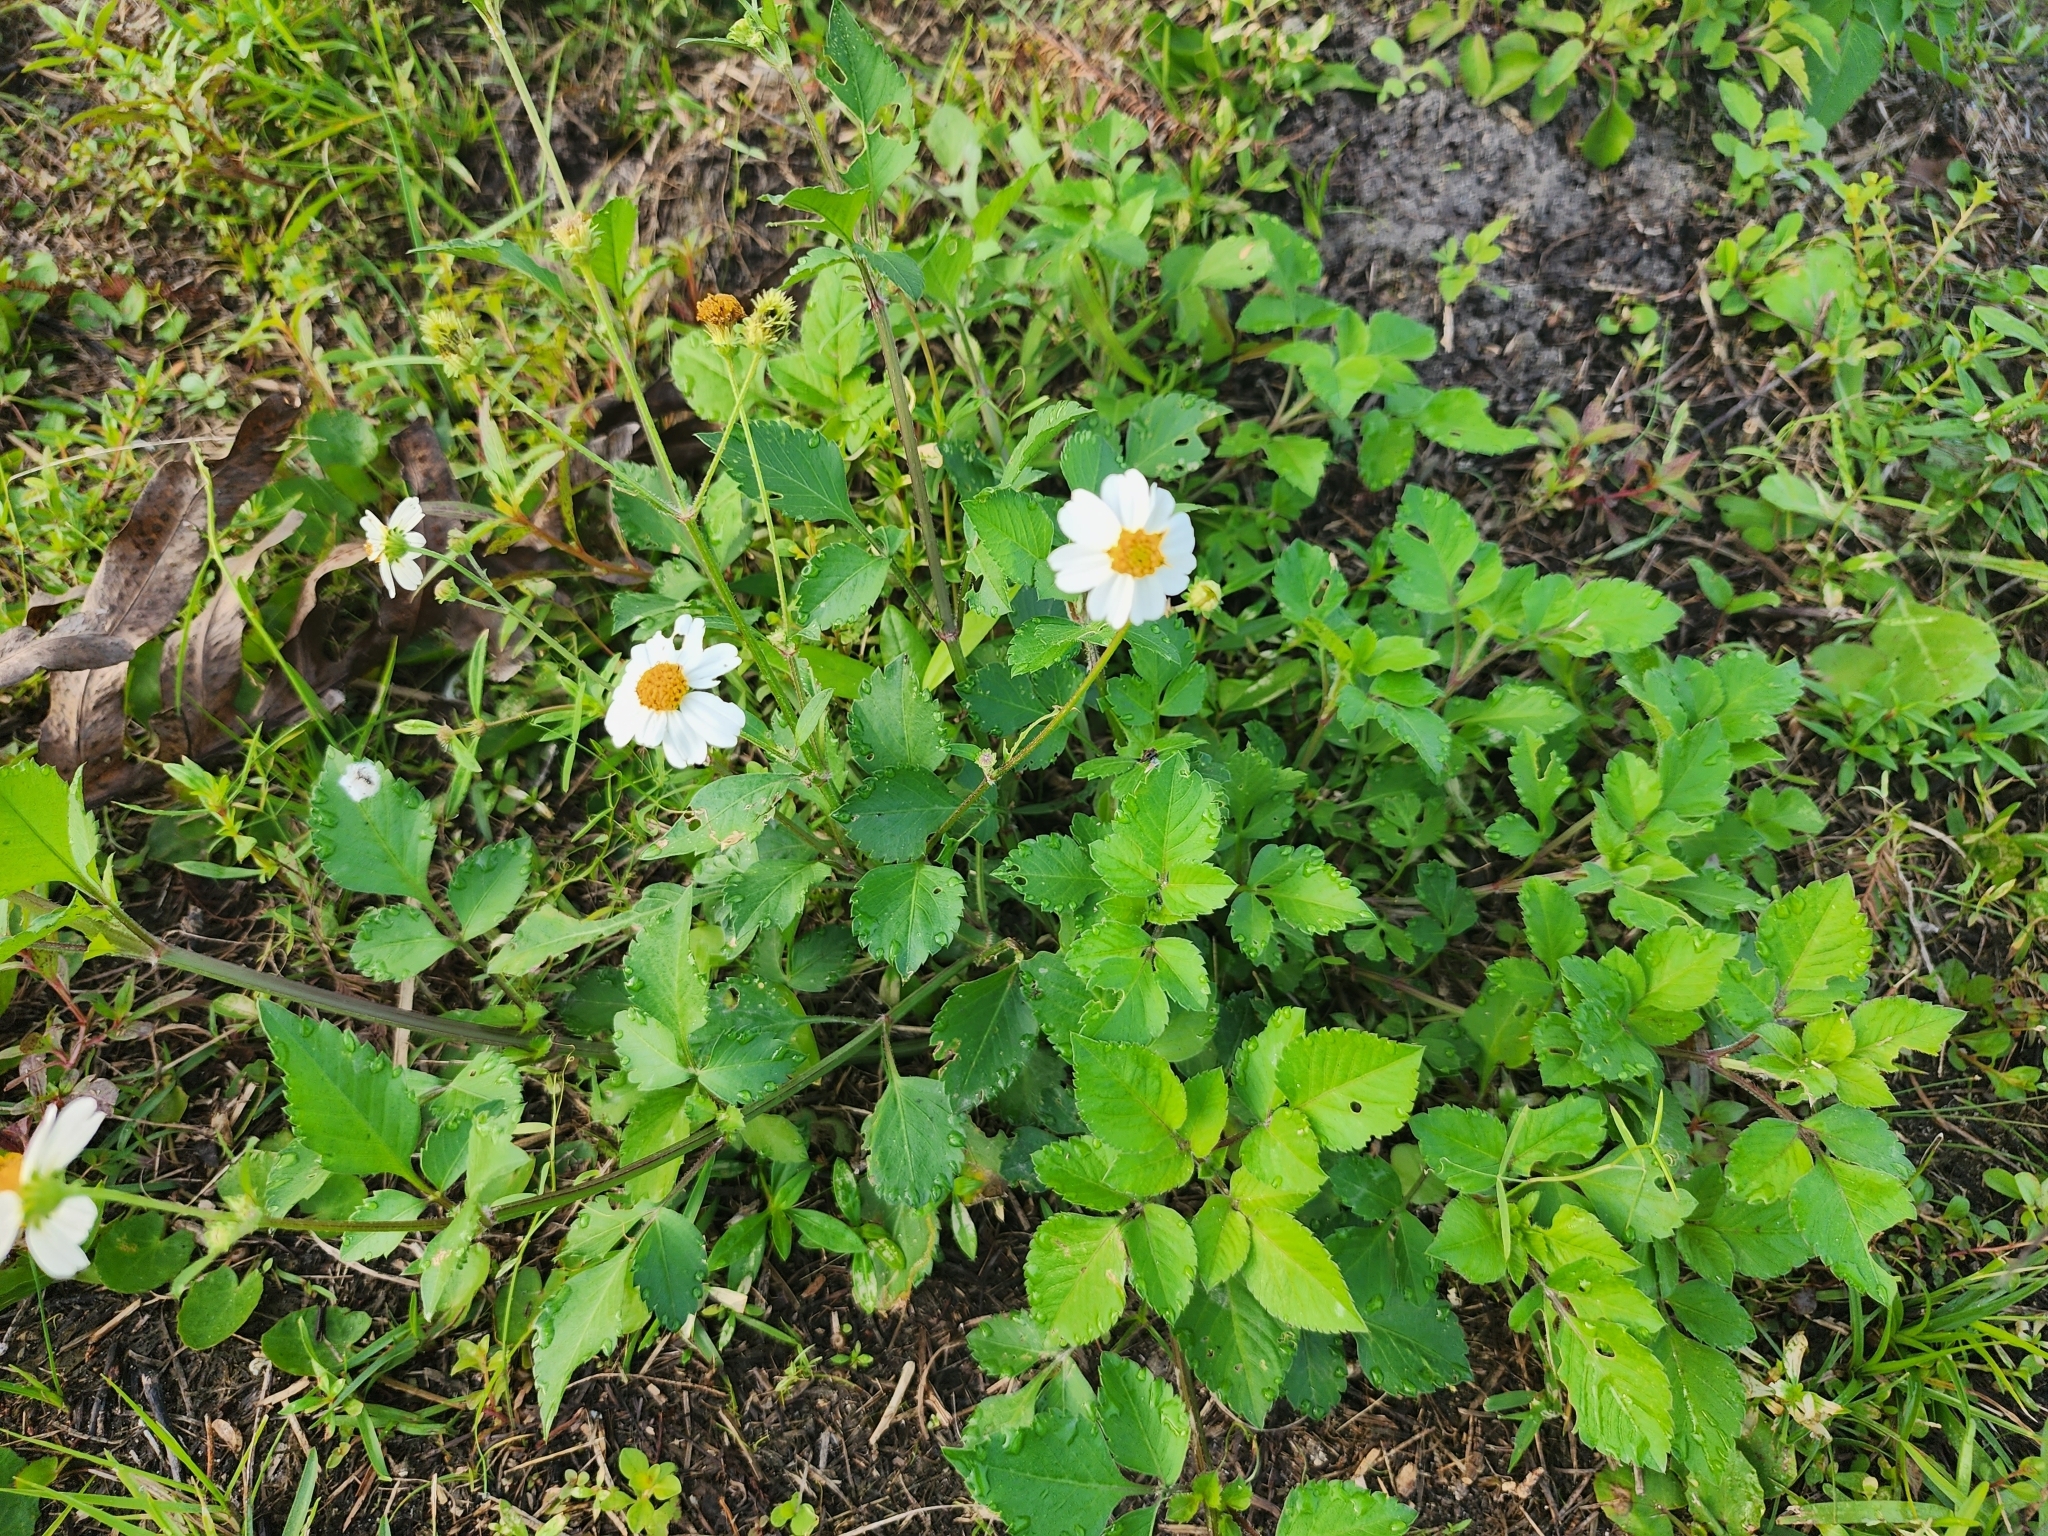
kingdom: Plantae
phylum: Tracheophyta
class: Magnoliopsida
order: Asterales
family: Asteraceae
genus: Bidens
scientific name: Bidens alba
